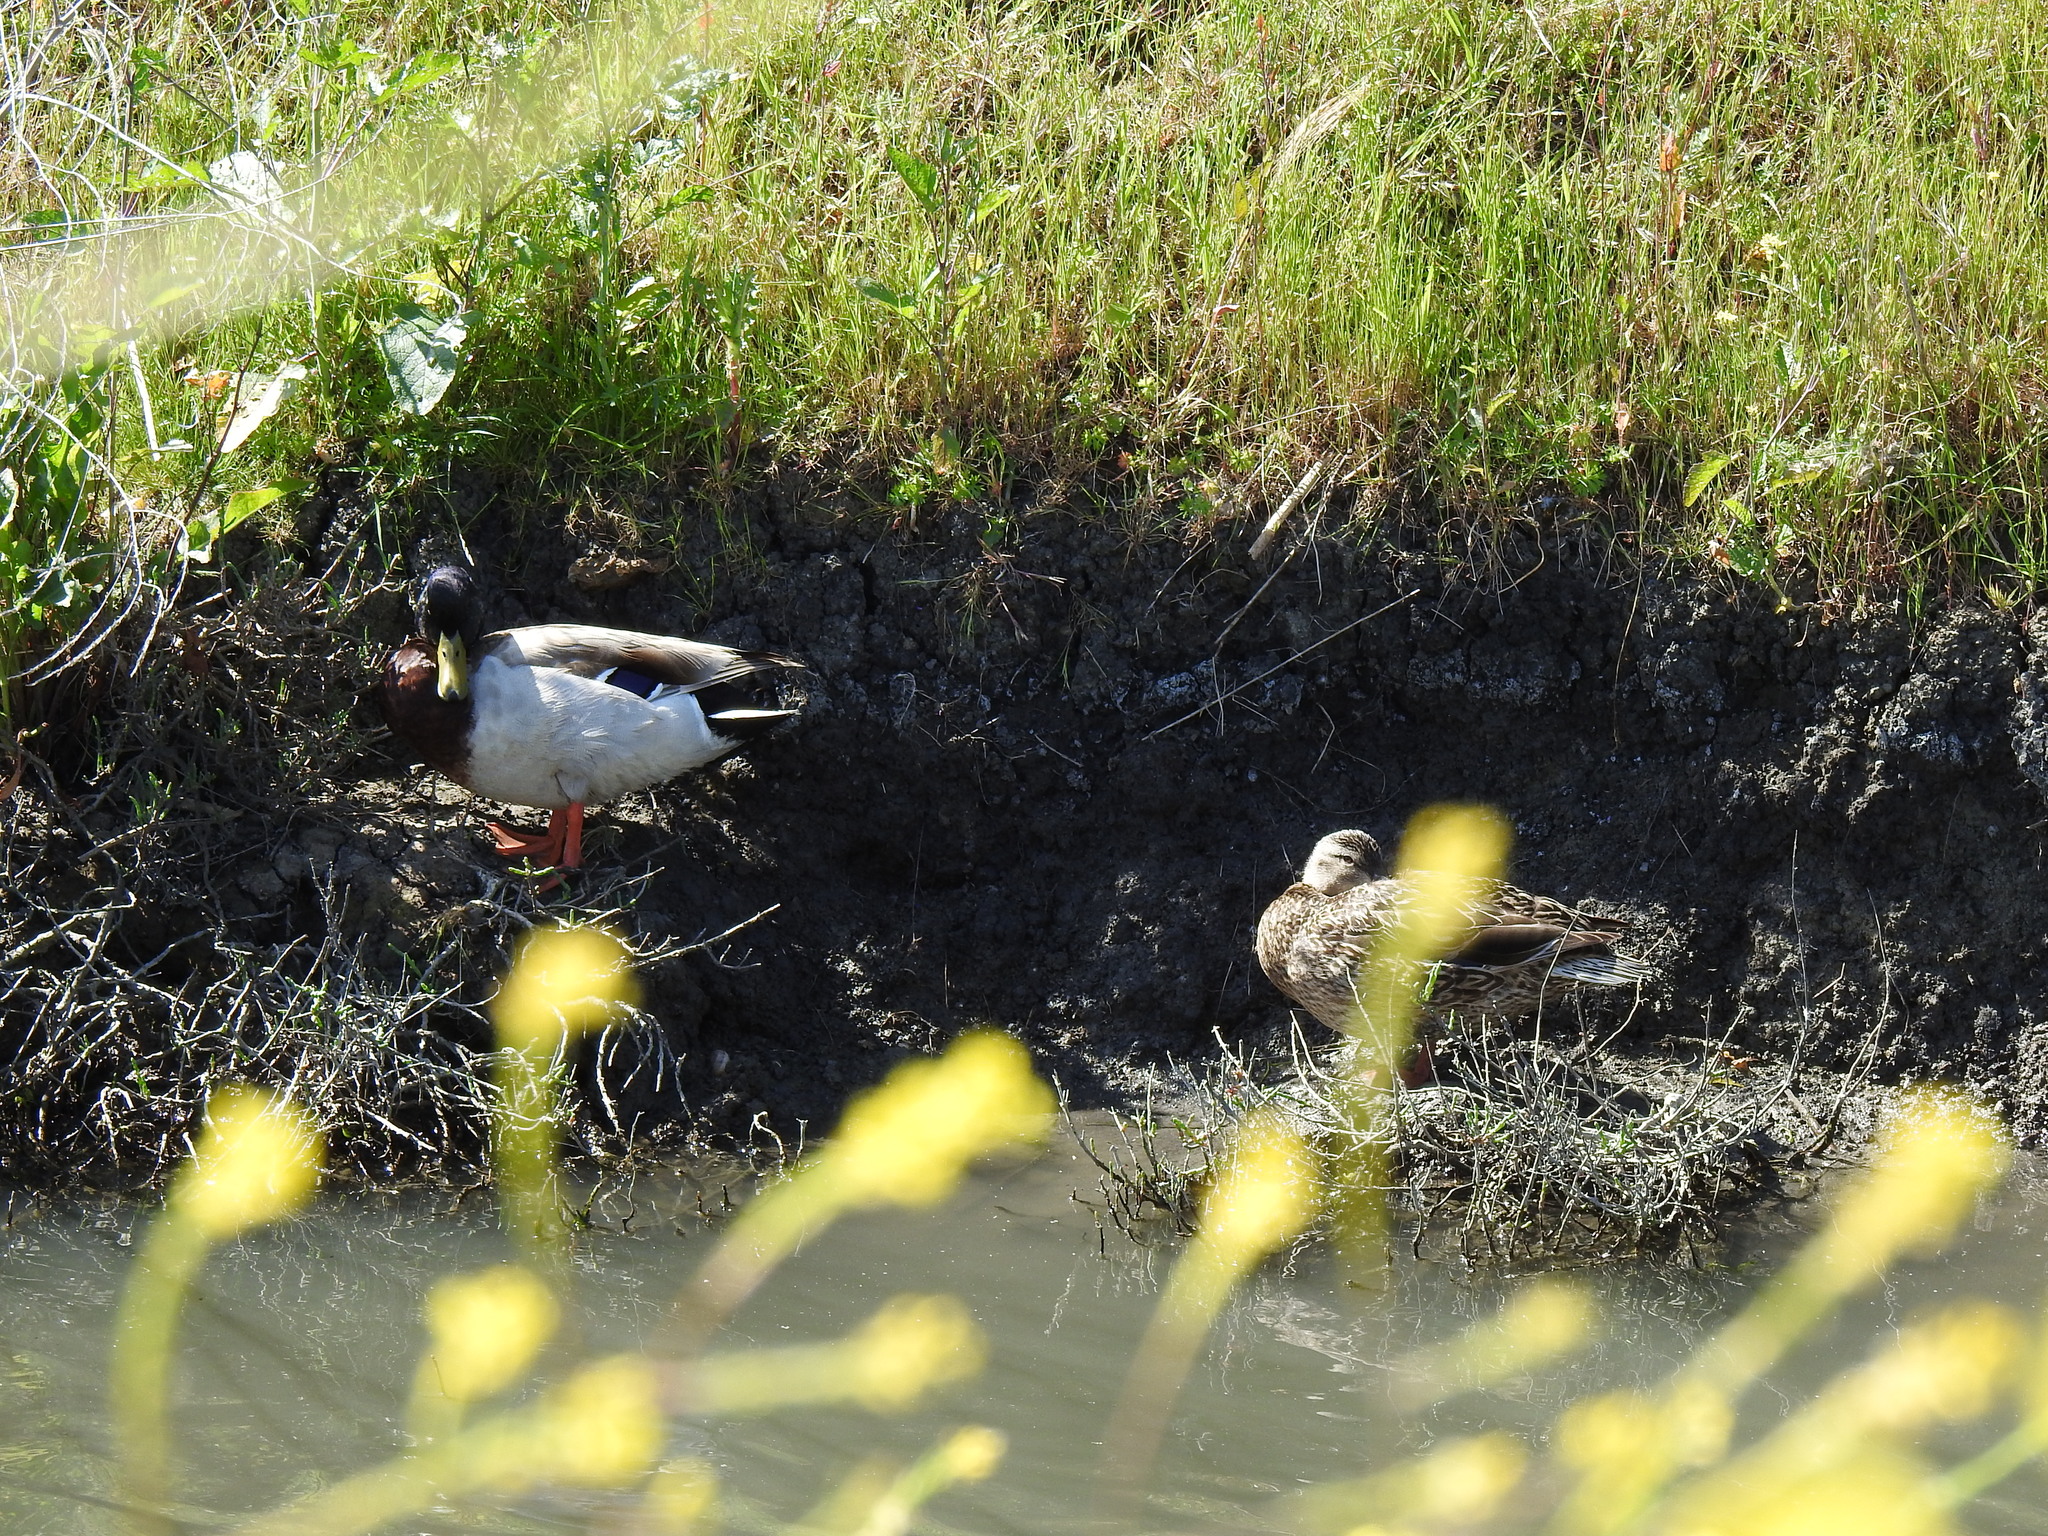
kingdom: Animalia
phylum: Chordata
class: Aves
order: Anseriformes
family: Anatidae
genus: Anas
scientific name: Anas platyrhynchos
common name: Mallard
